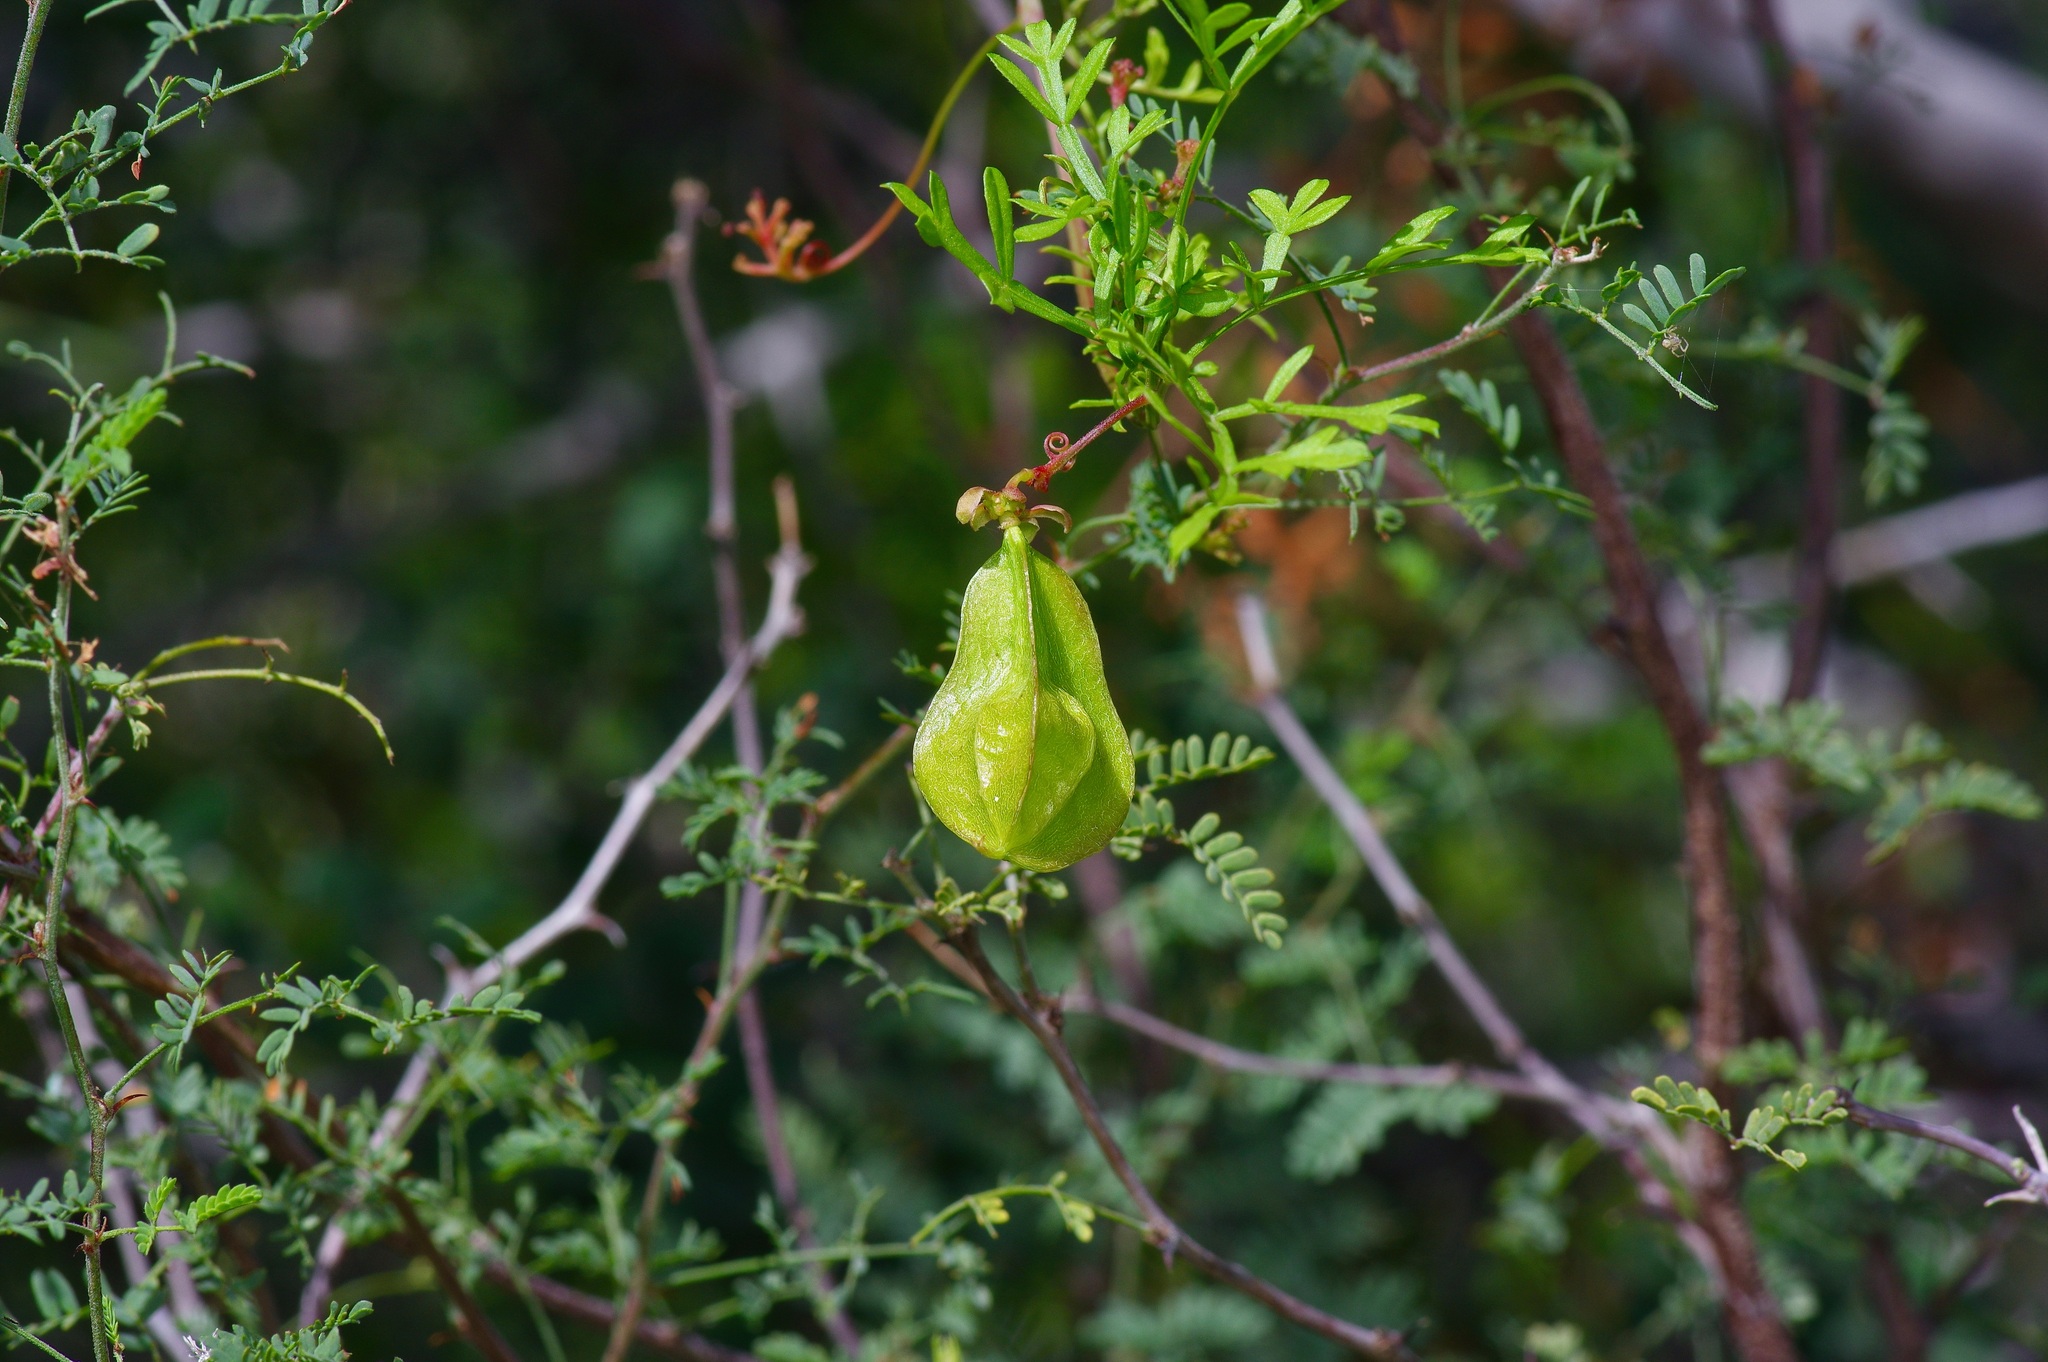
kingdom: Plantae
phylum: Tracheophyta
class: Magnoliopsida
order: Sapindales
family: Sapindaceae
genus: Serjania
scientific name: Serjania dissecta
